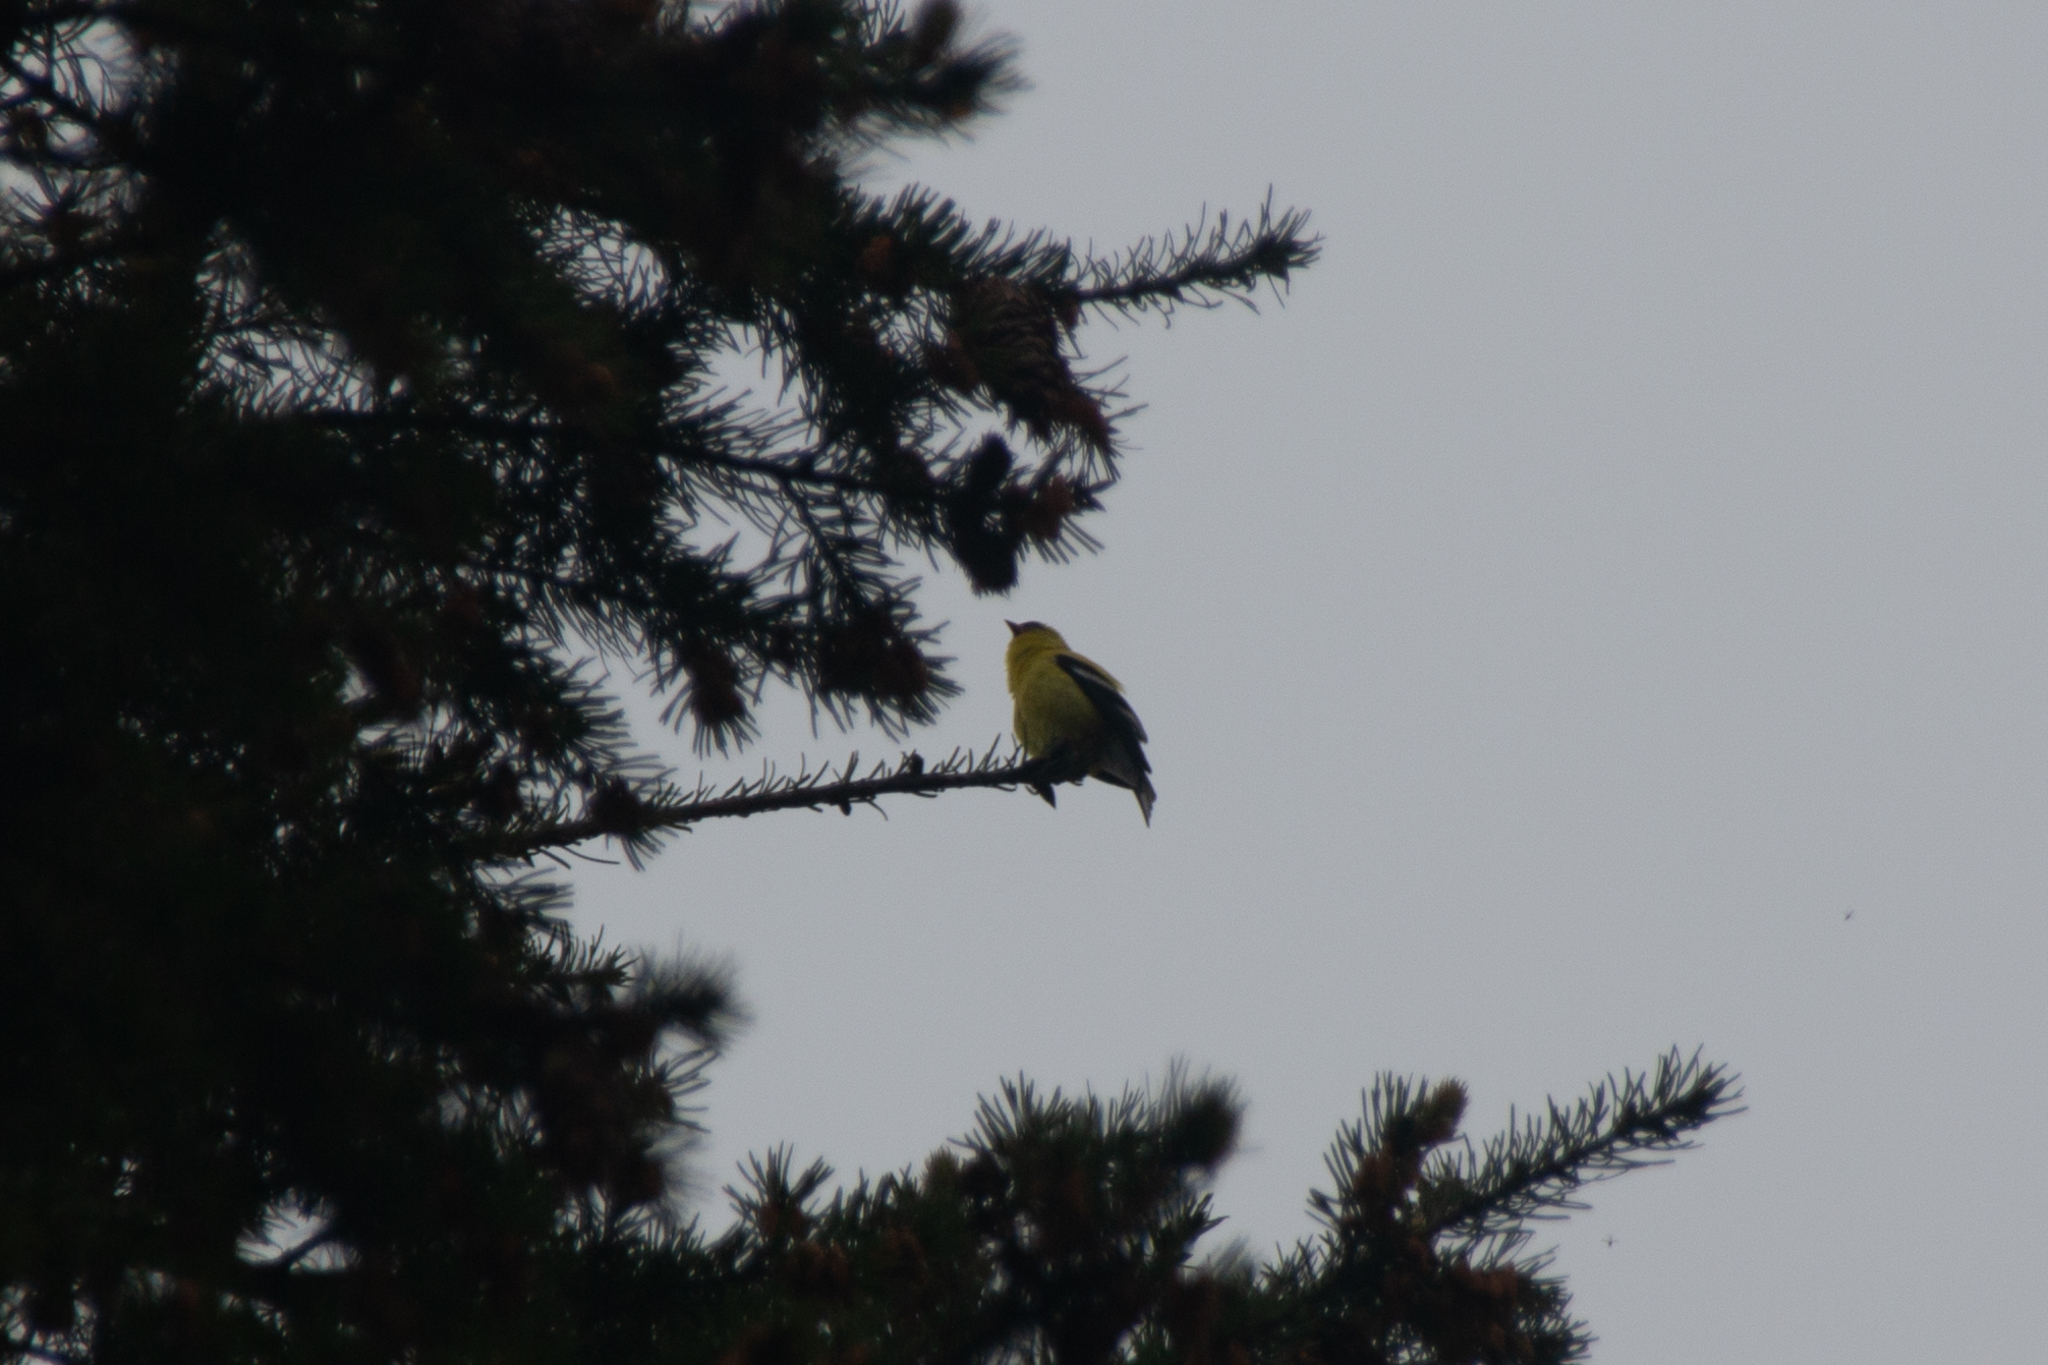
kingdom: Animalia
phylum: Chordata
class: Aves
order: Passeriformes
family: Fringillidae
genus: Spinus
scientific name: Spinus tristis
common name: American goldfinch
